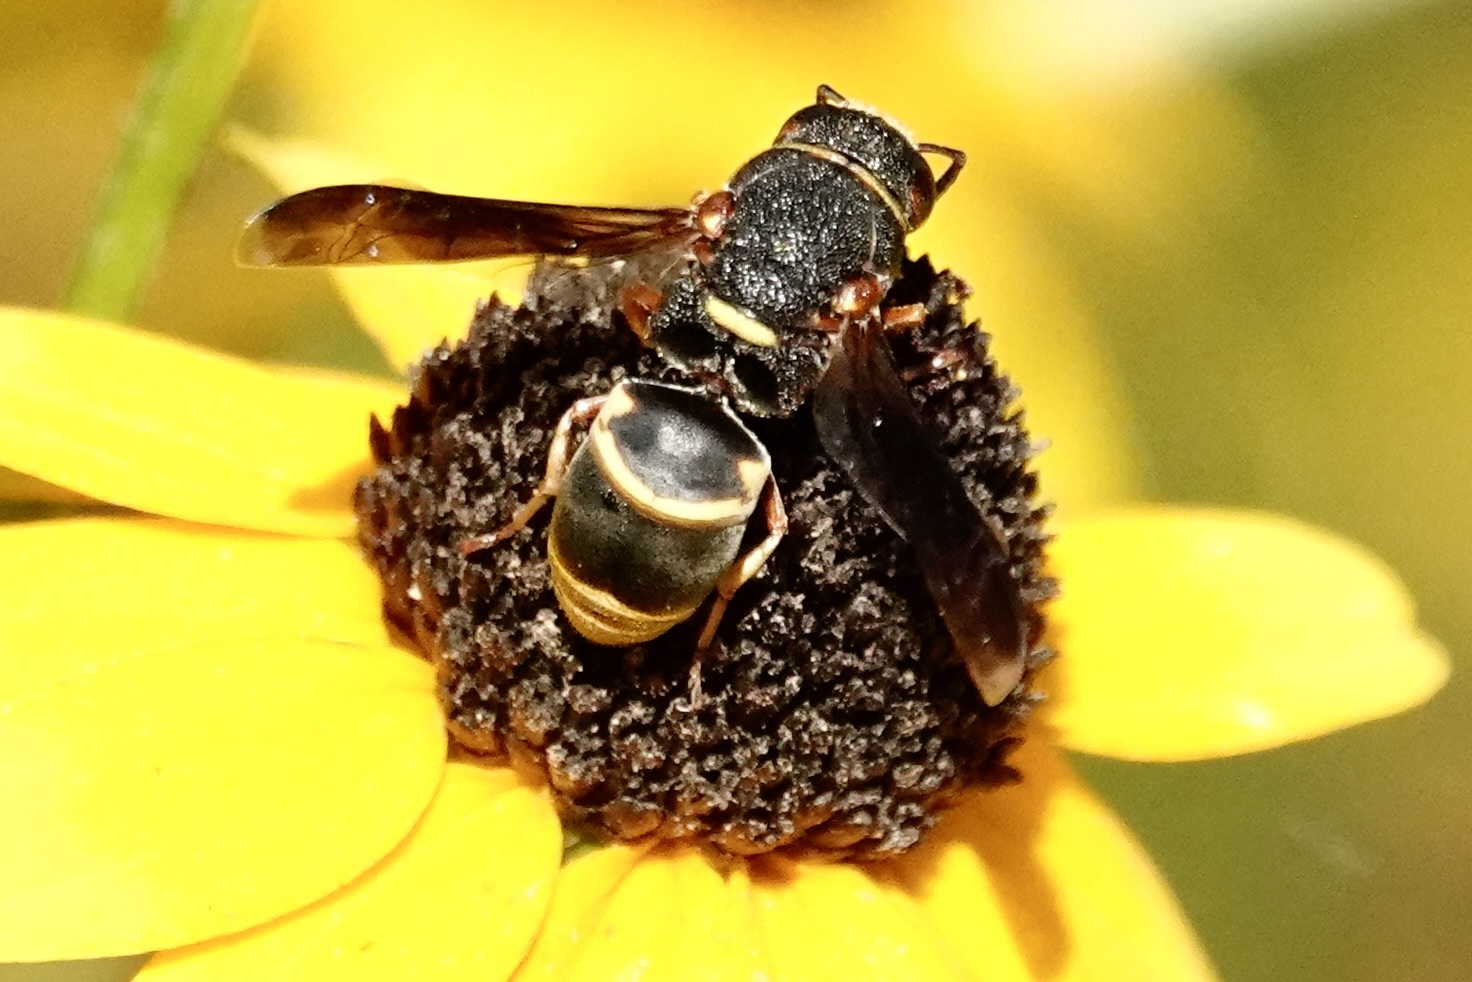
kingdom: Animalia
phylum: Arthropoda
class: Insecta
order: Hymenoptera
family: Eumenidae
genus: Euodynerus
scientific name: Euodynerus hidalgo
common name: Wasp
